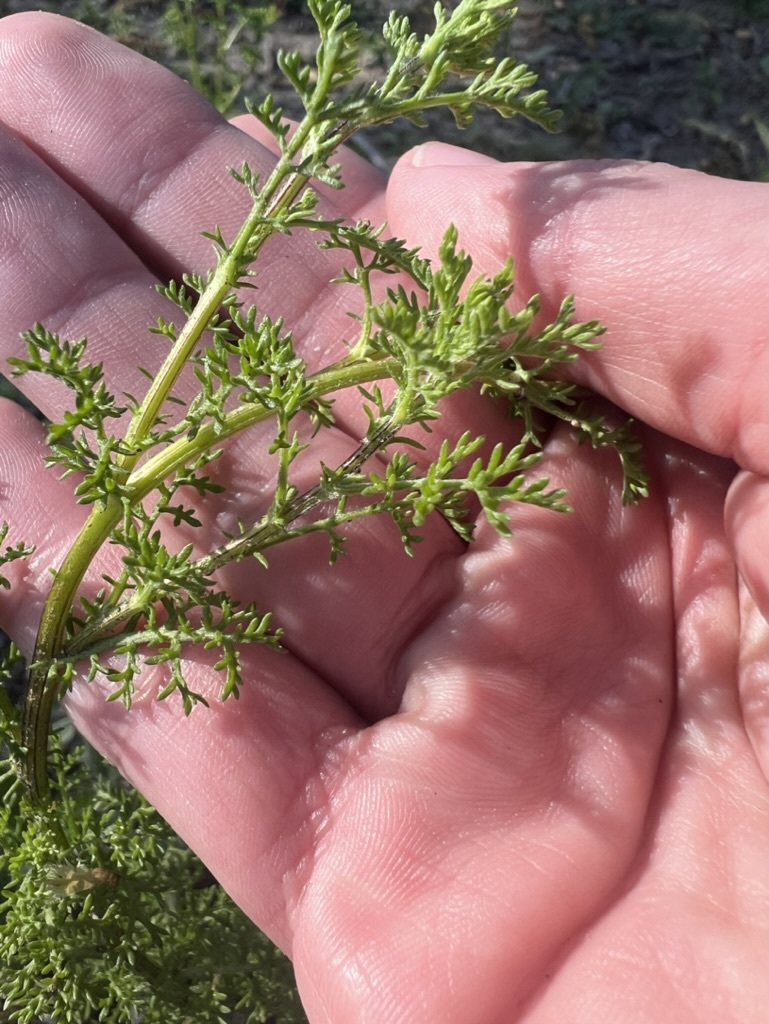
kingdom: Plantae
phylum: Tracheophyta
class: Magnoliopsida
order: Asterales
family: Asteraceae
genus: Oncosiphon
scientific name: Oncosiphon pilulifer
